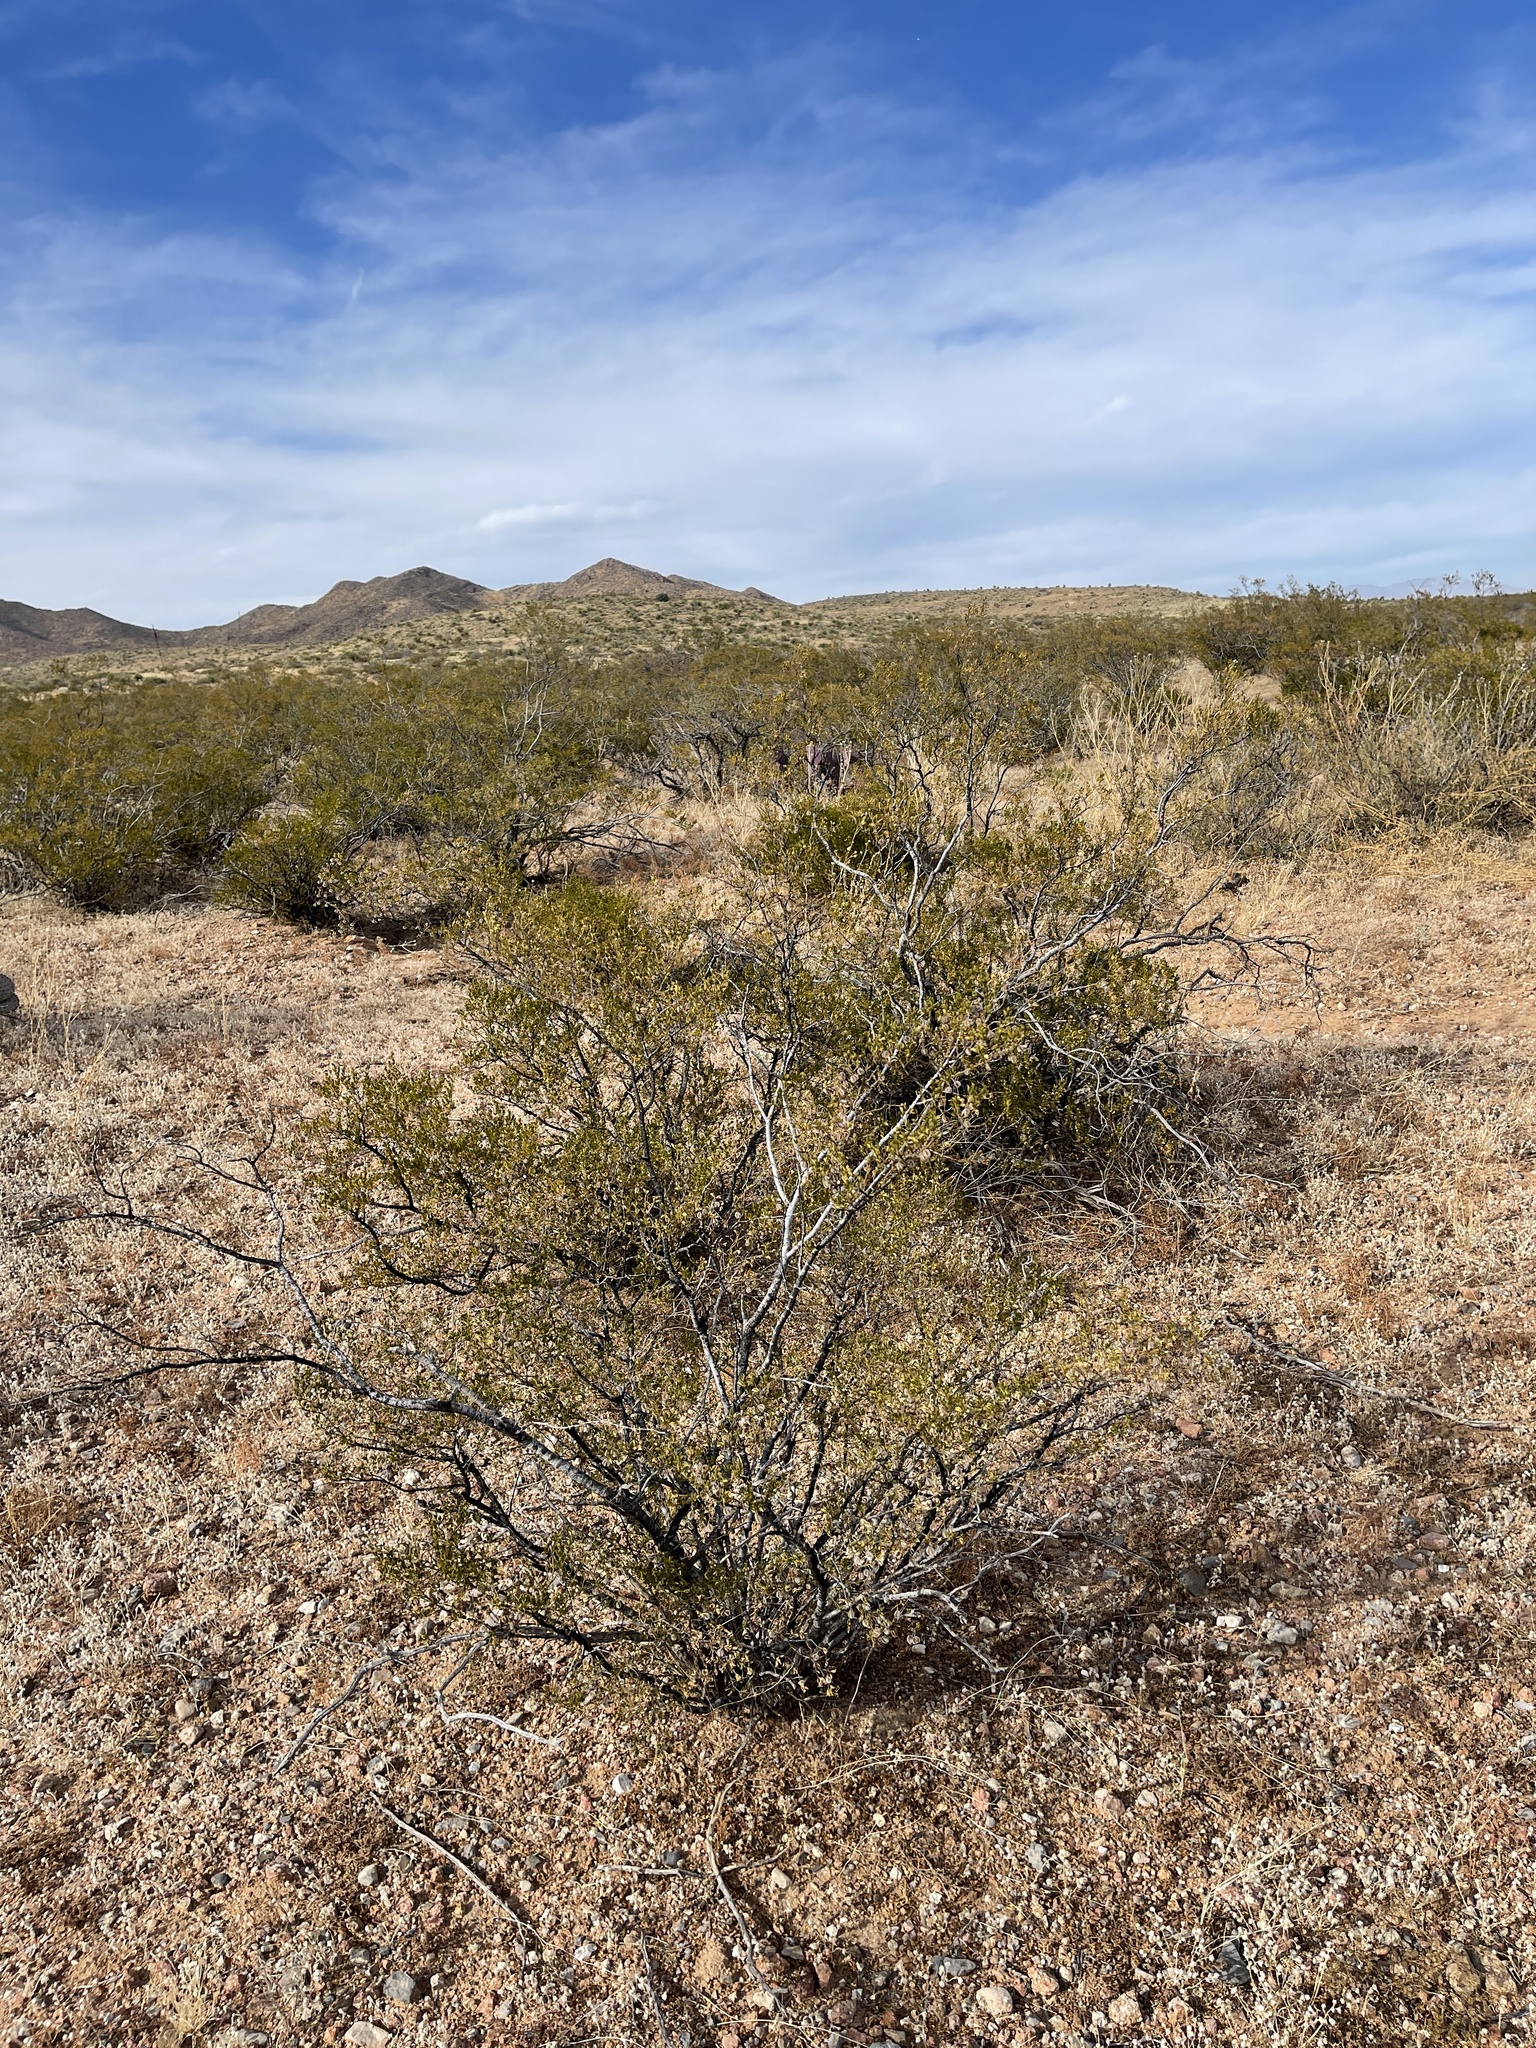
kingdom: Plantae
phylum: Tracheophyta
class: Magnoliopsida
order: Zygophyllales
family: Zygophyllaceae
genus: Larrea
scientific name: Larrea tridentata
